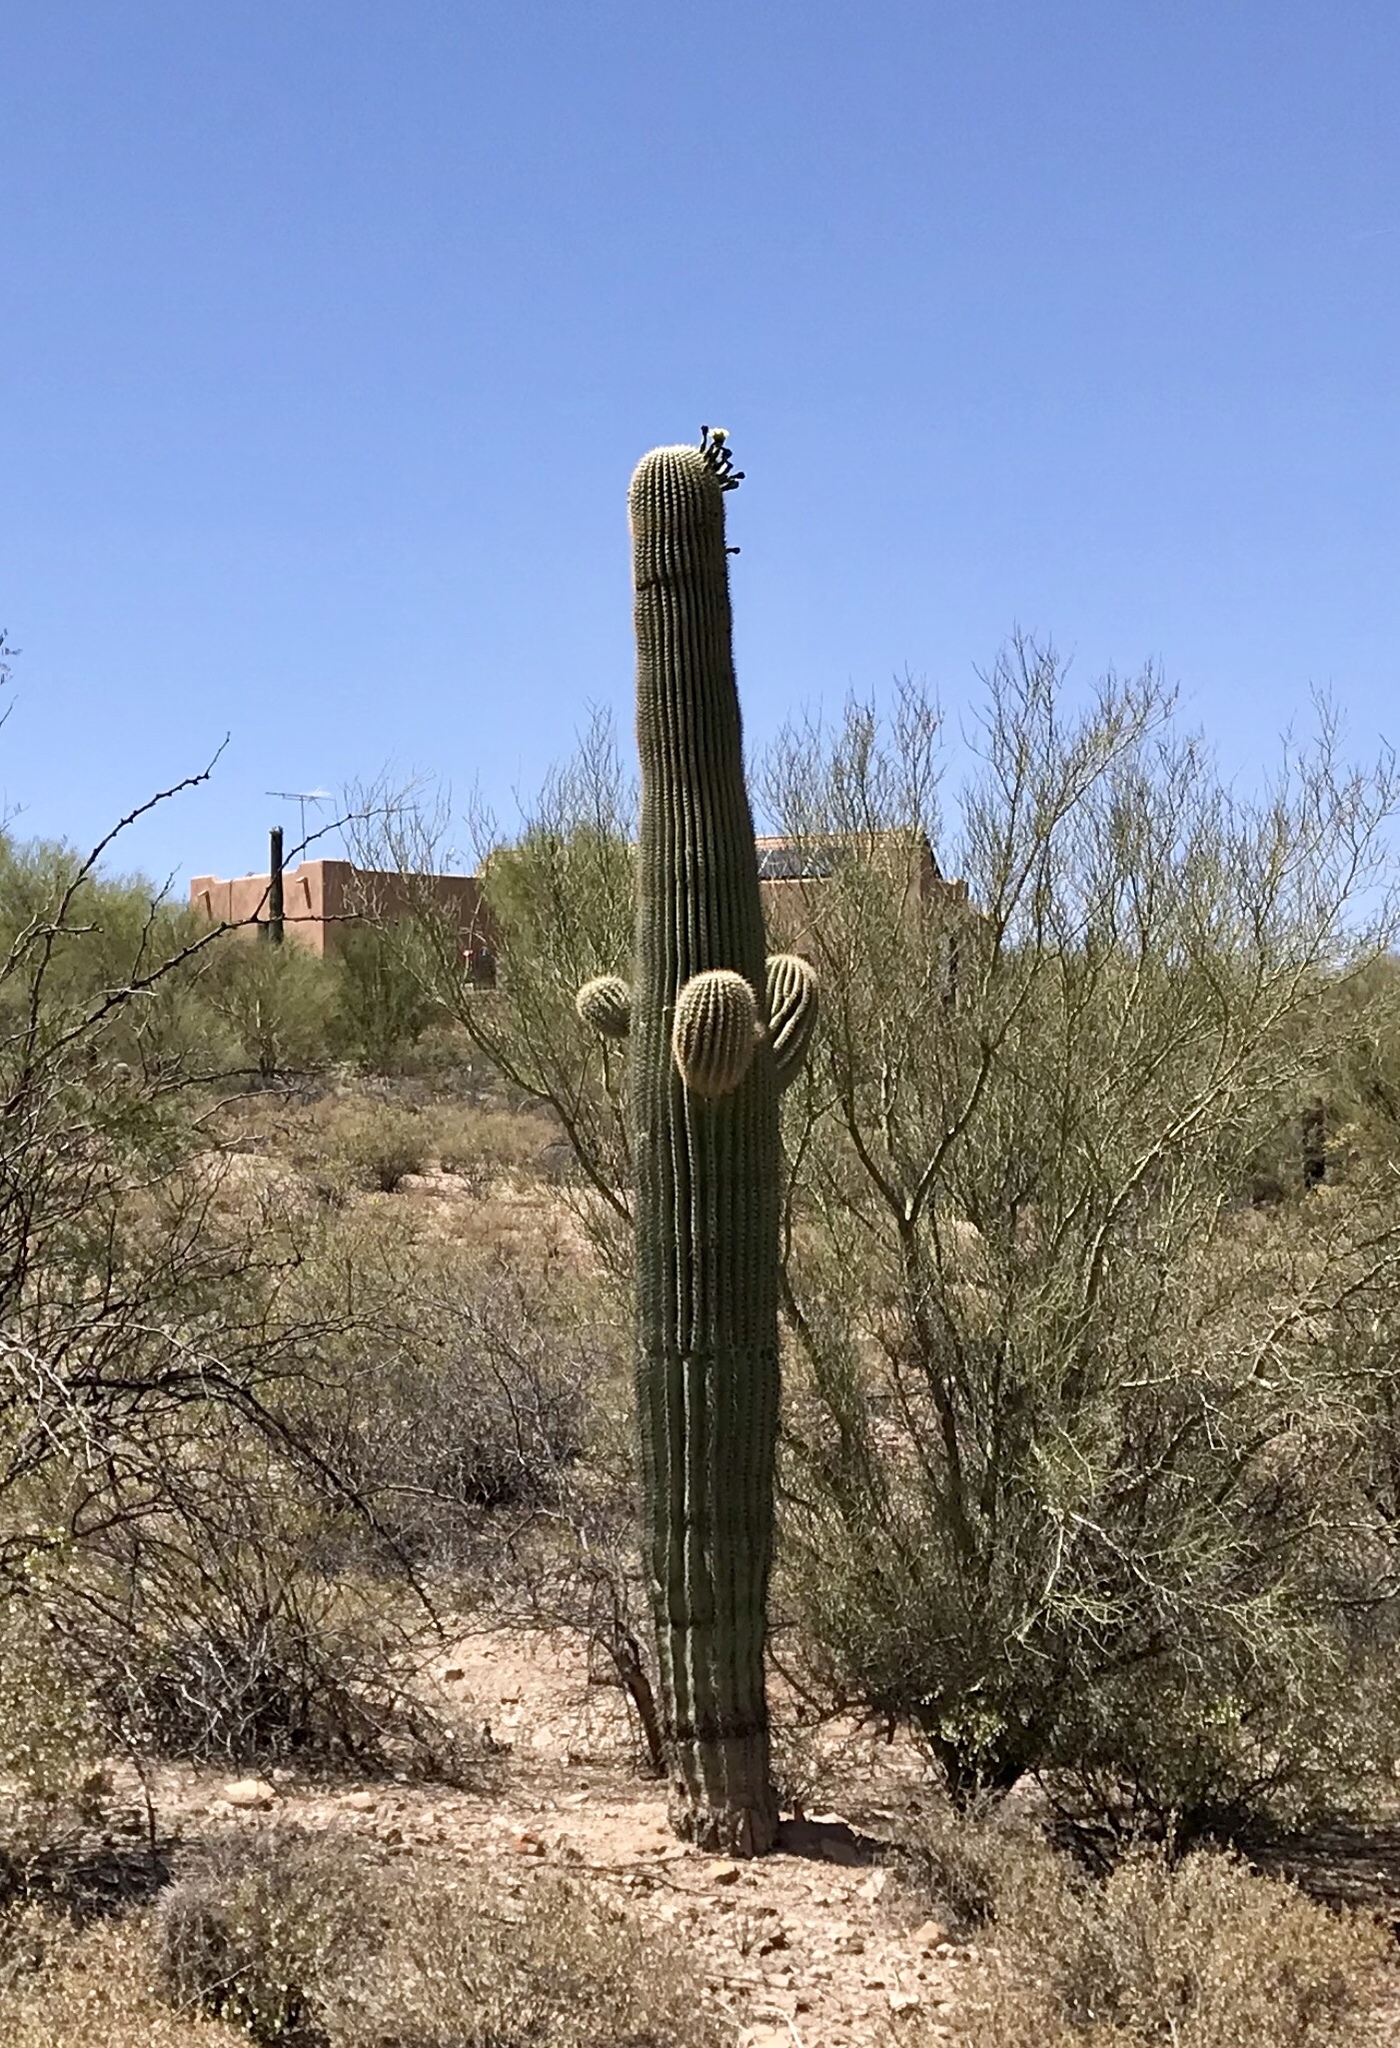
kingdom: Plantae
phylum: Tracheophyta
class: Magnoliopsida
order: Caryophyllales
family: Cactaceae
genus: Carnegiea
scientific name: Carnegiea gigantea
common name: Saguaro
